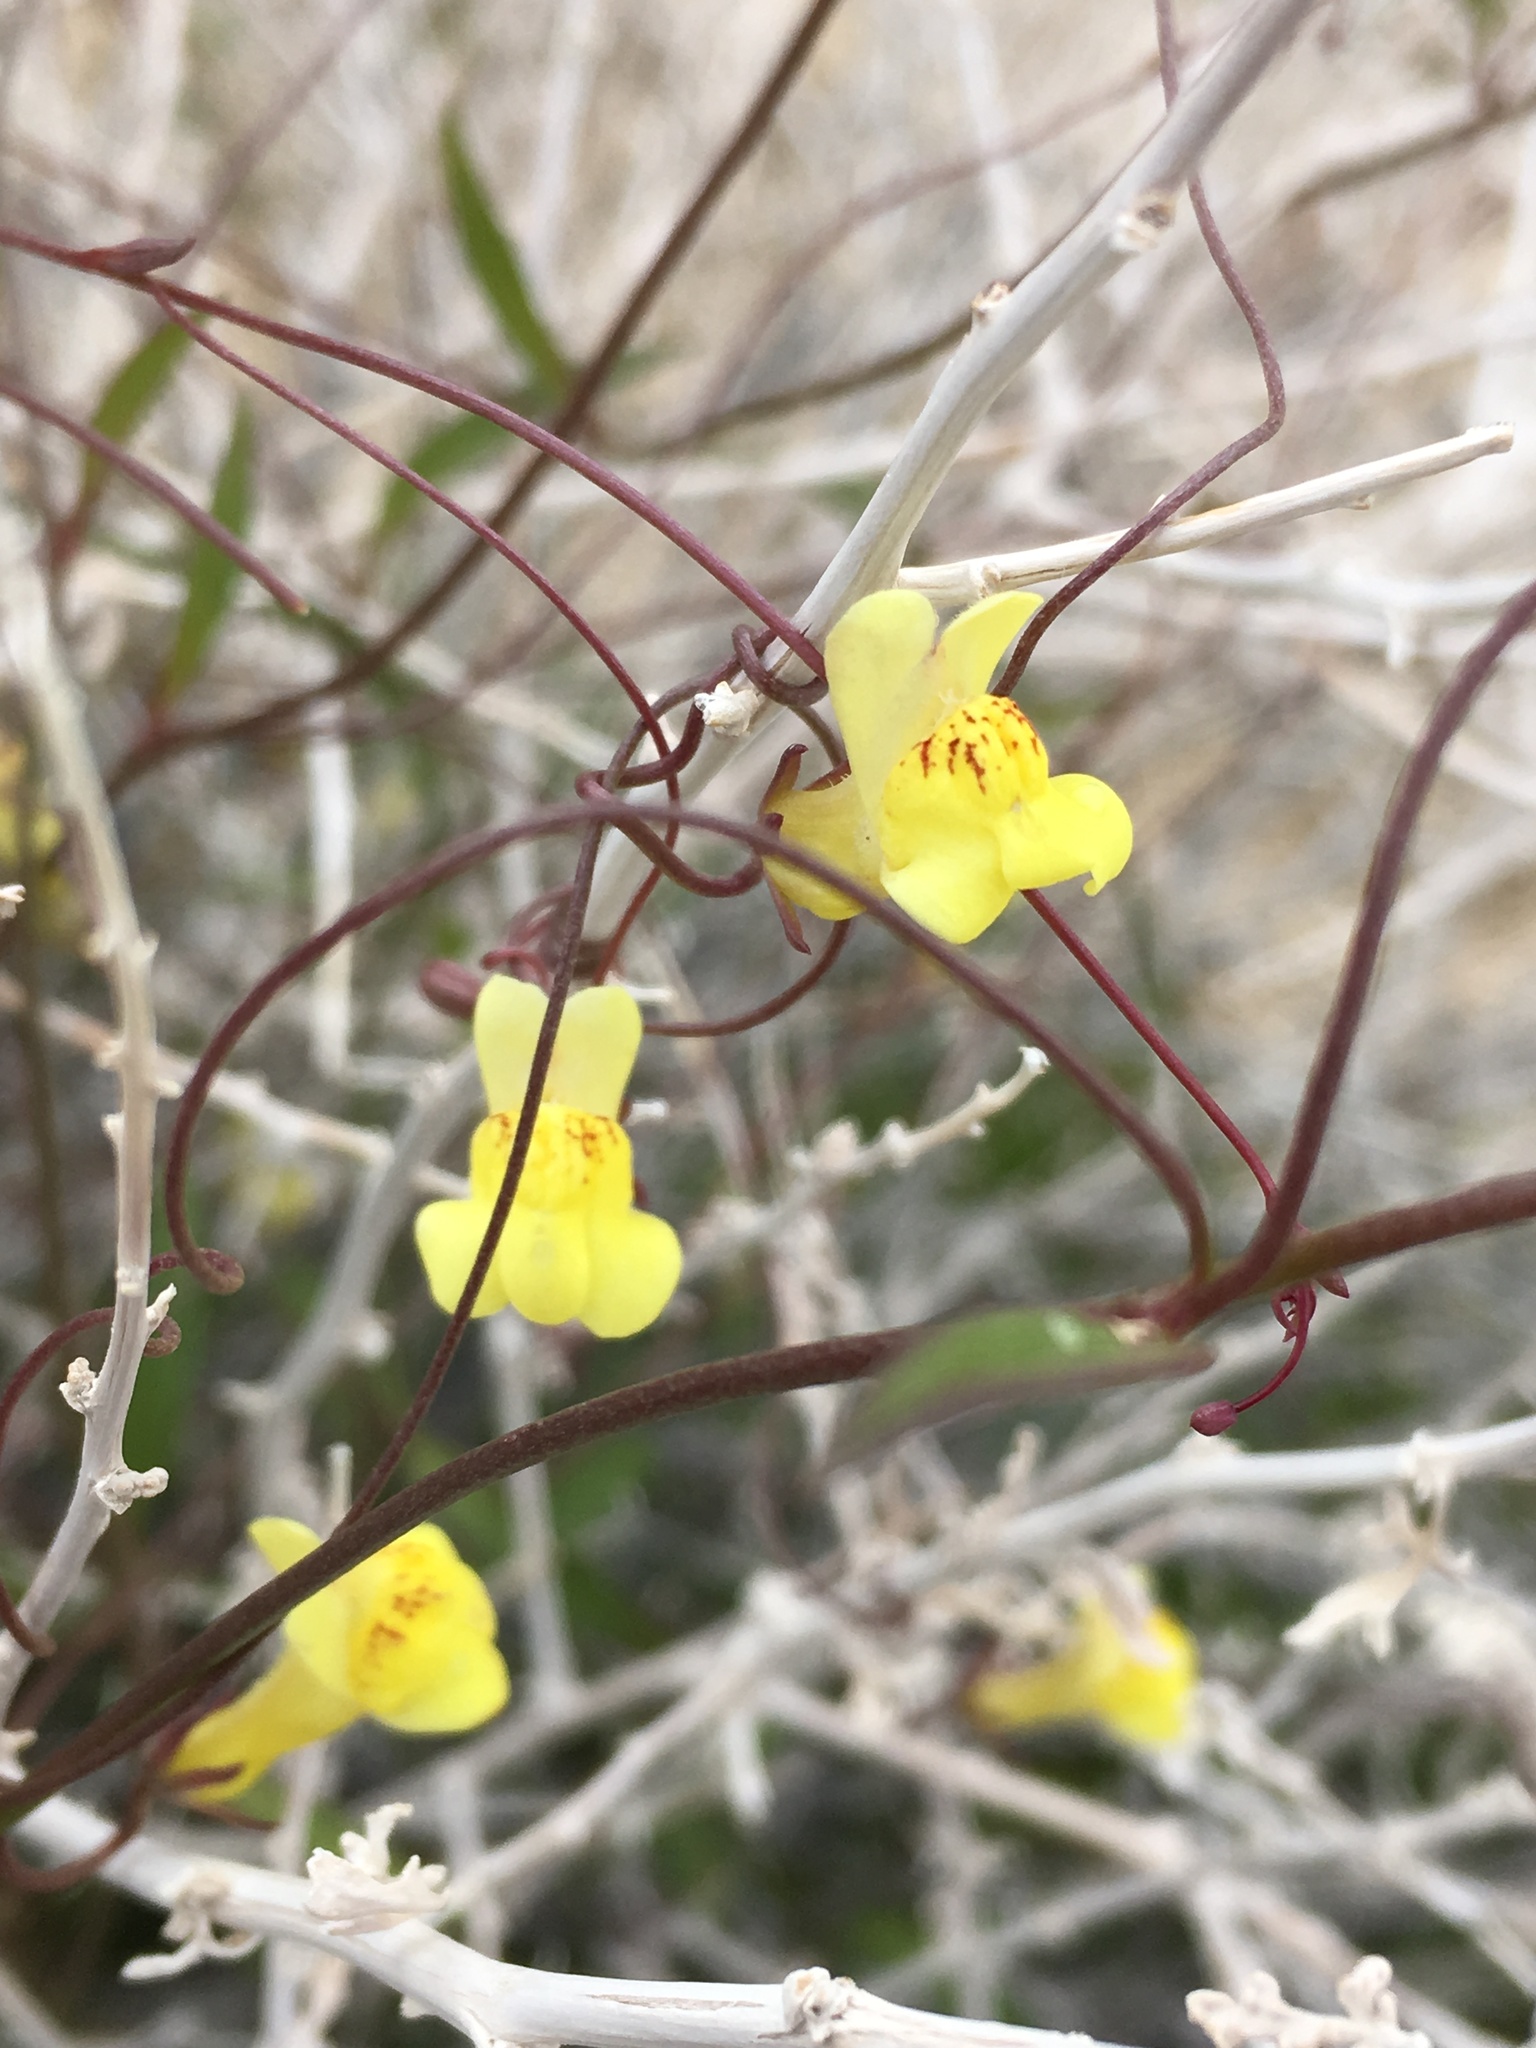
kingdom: Plantae
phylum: Tracheophyta
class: Magnoliopsida
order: Lamiales
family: Plantaginaceae
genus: Neogaerrhinum
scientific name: Neogaerrhinum filipes
